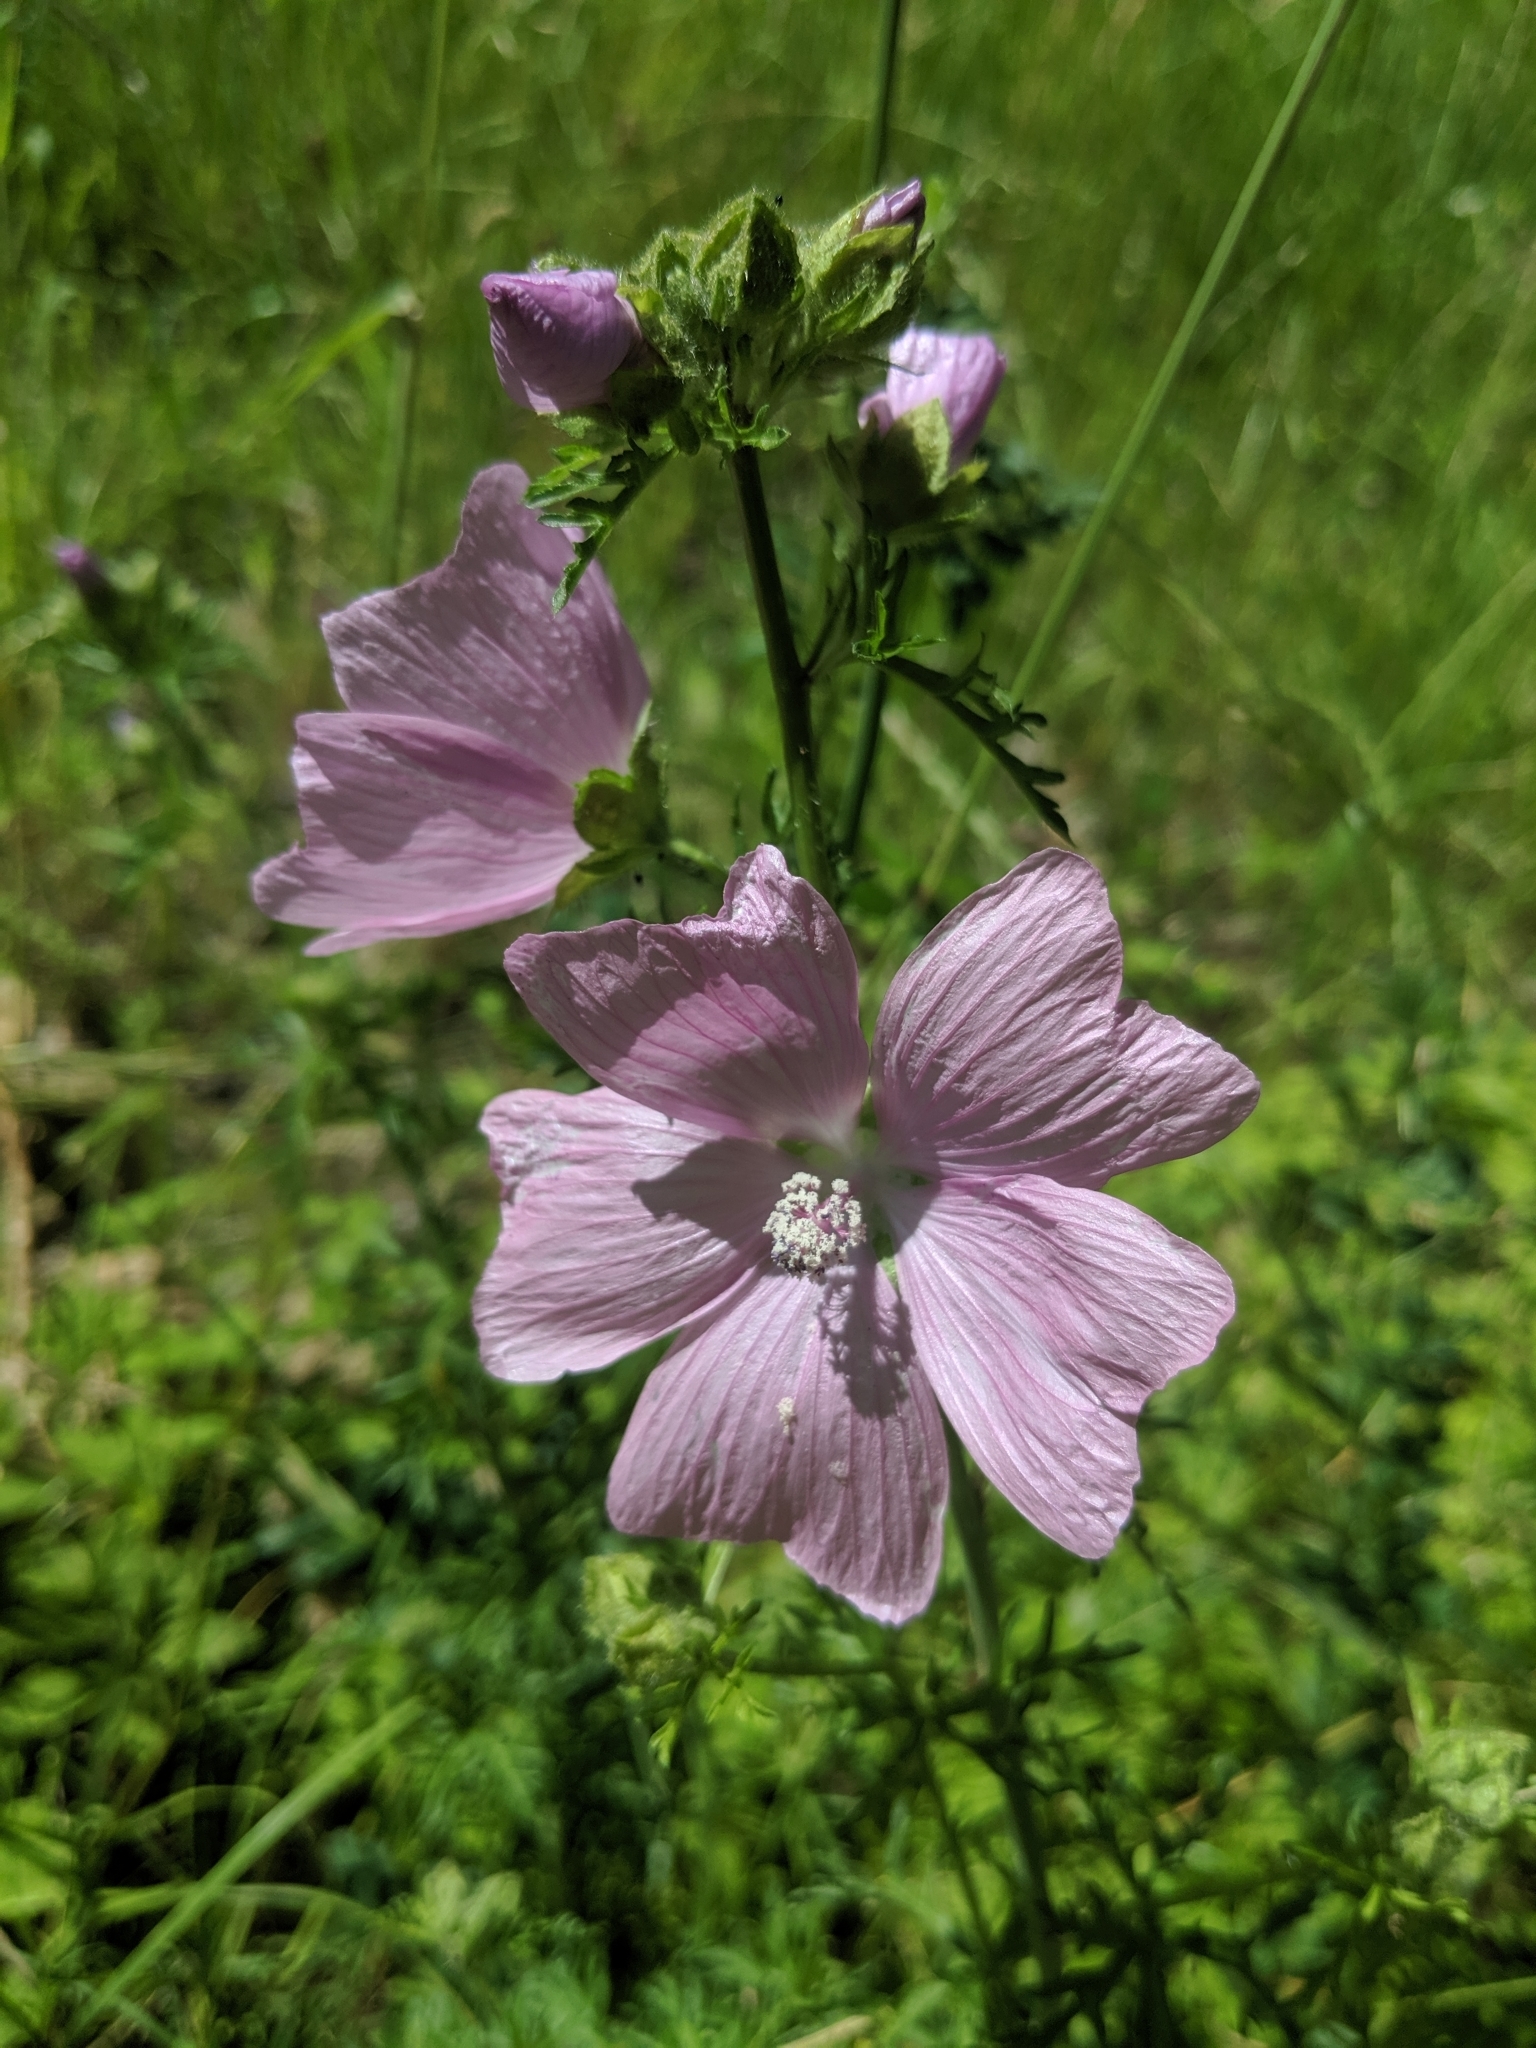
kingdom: Plantae
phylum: Tracheophyta
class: Magnoliopsida
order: Malvales
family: Malvaceae
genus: Malva
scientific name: Malva moschata
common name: Musk mallow
